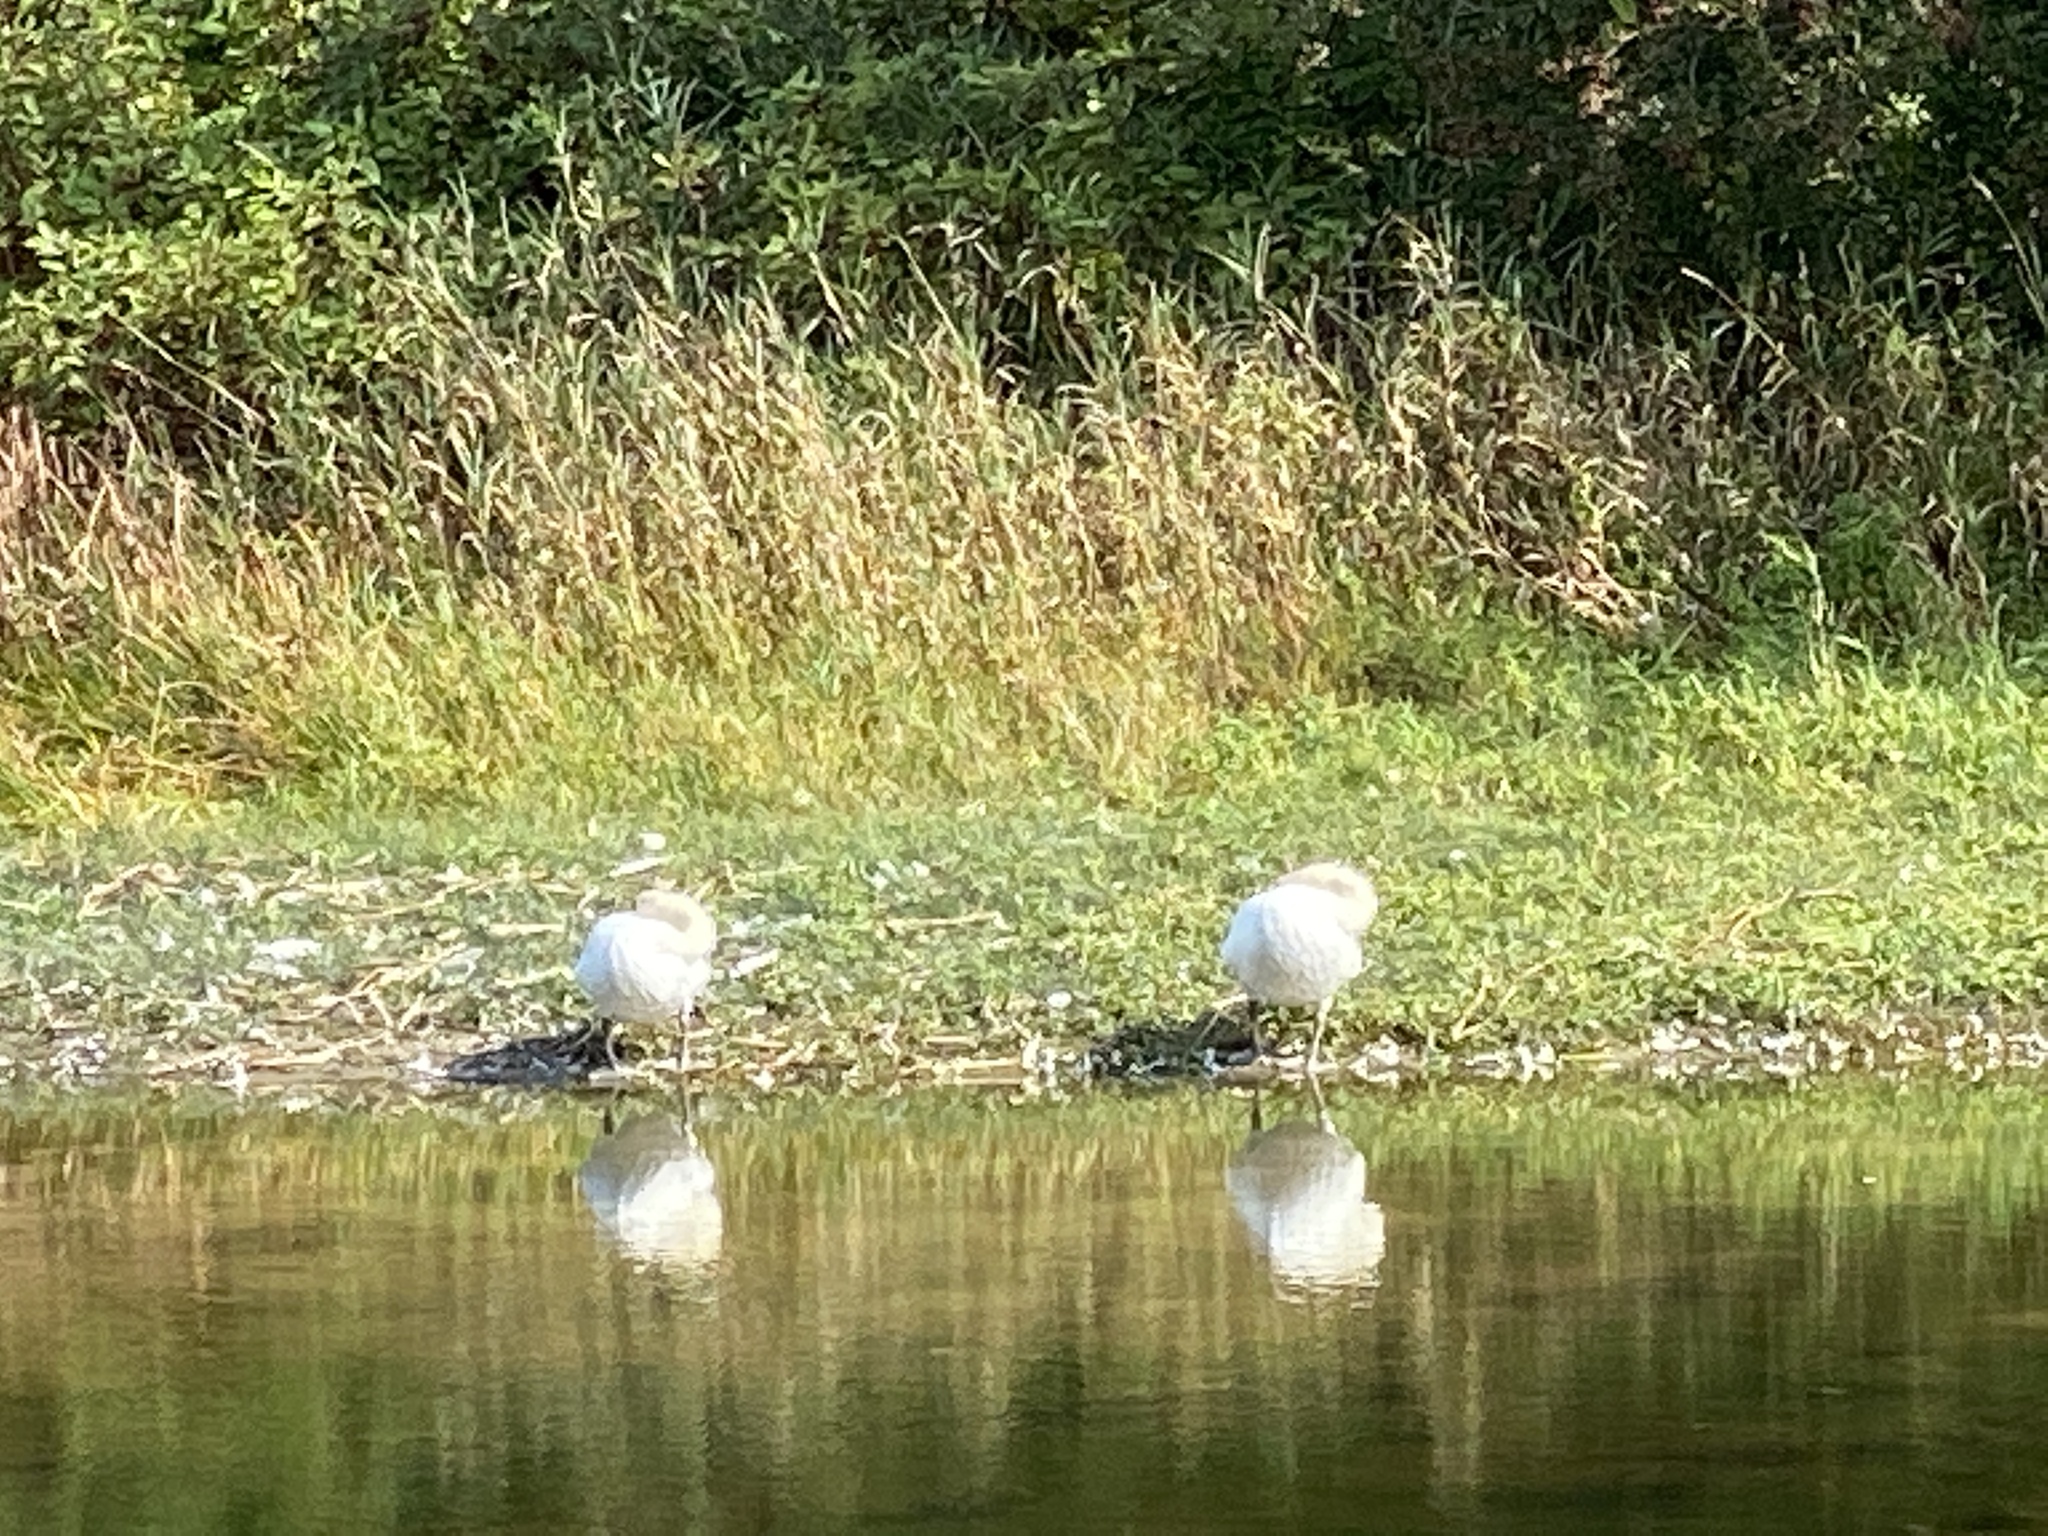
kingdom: Animalia
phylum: Chordata
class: Aves
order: Anseriformes
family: Anatidae
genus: Cygnus
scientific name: Cygnus olor
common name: Mute swan
